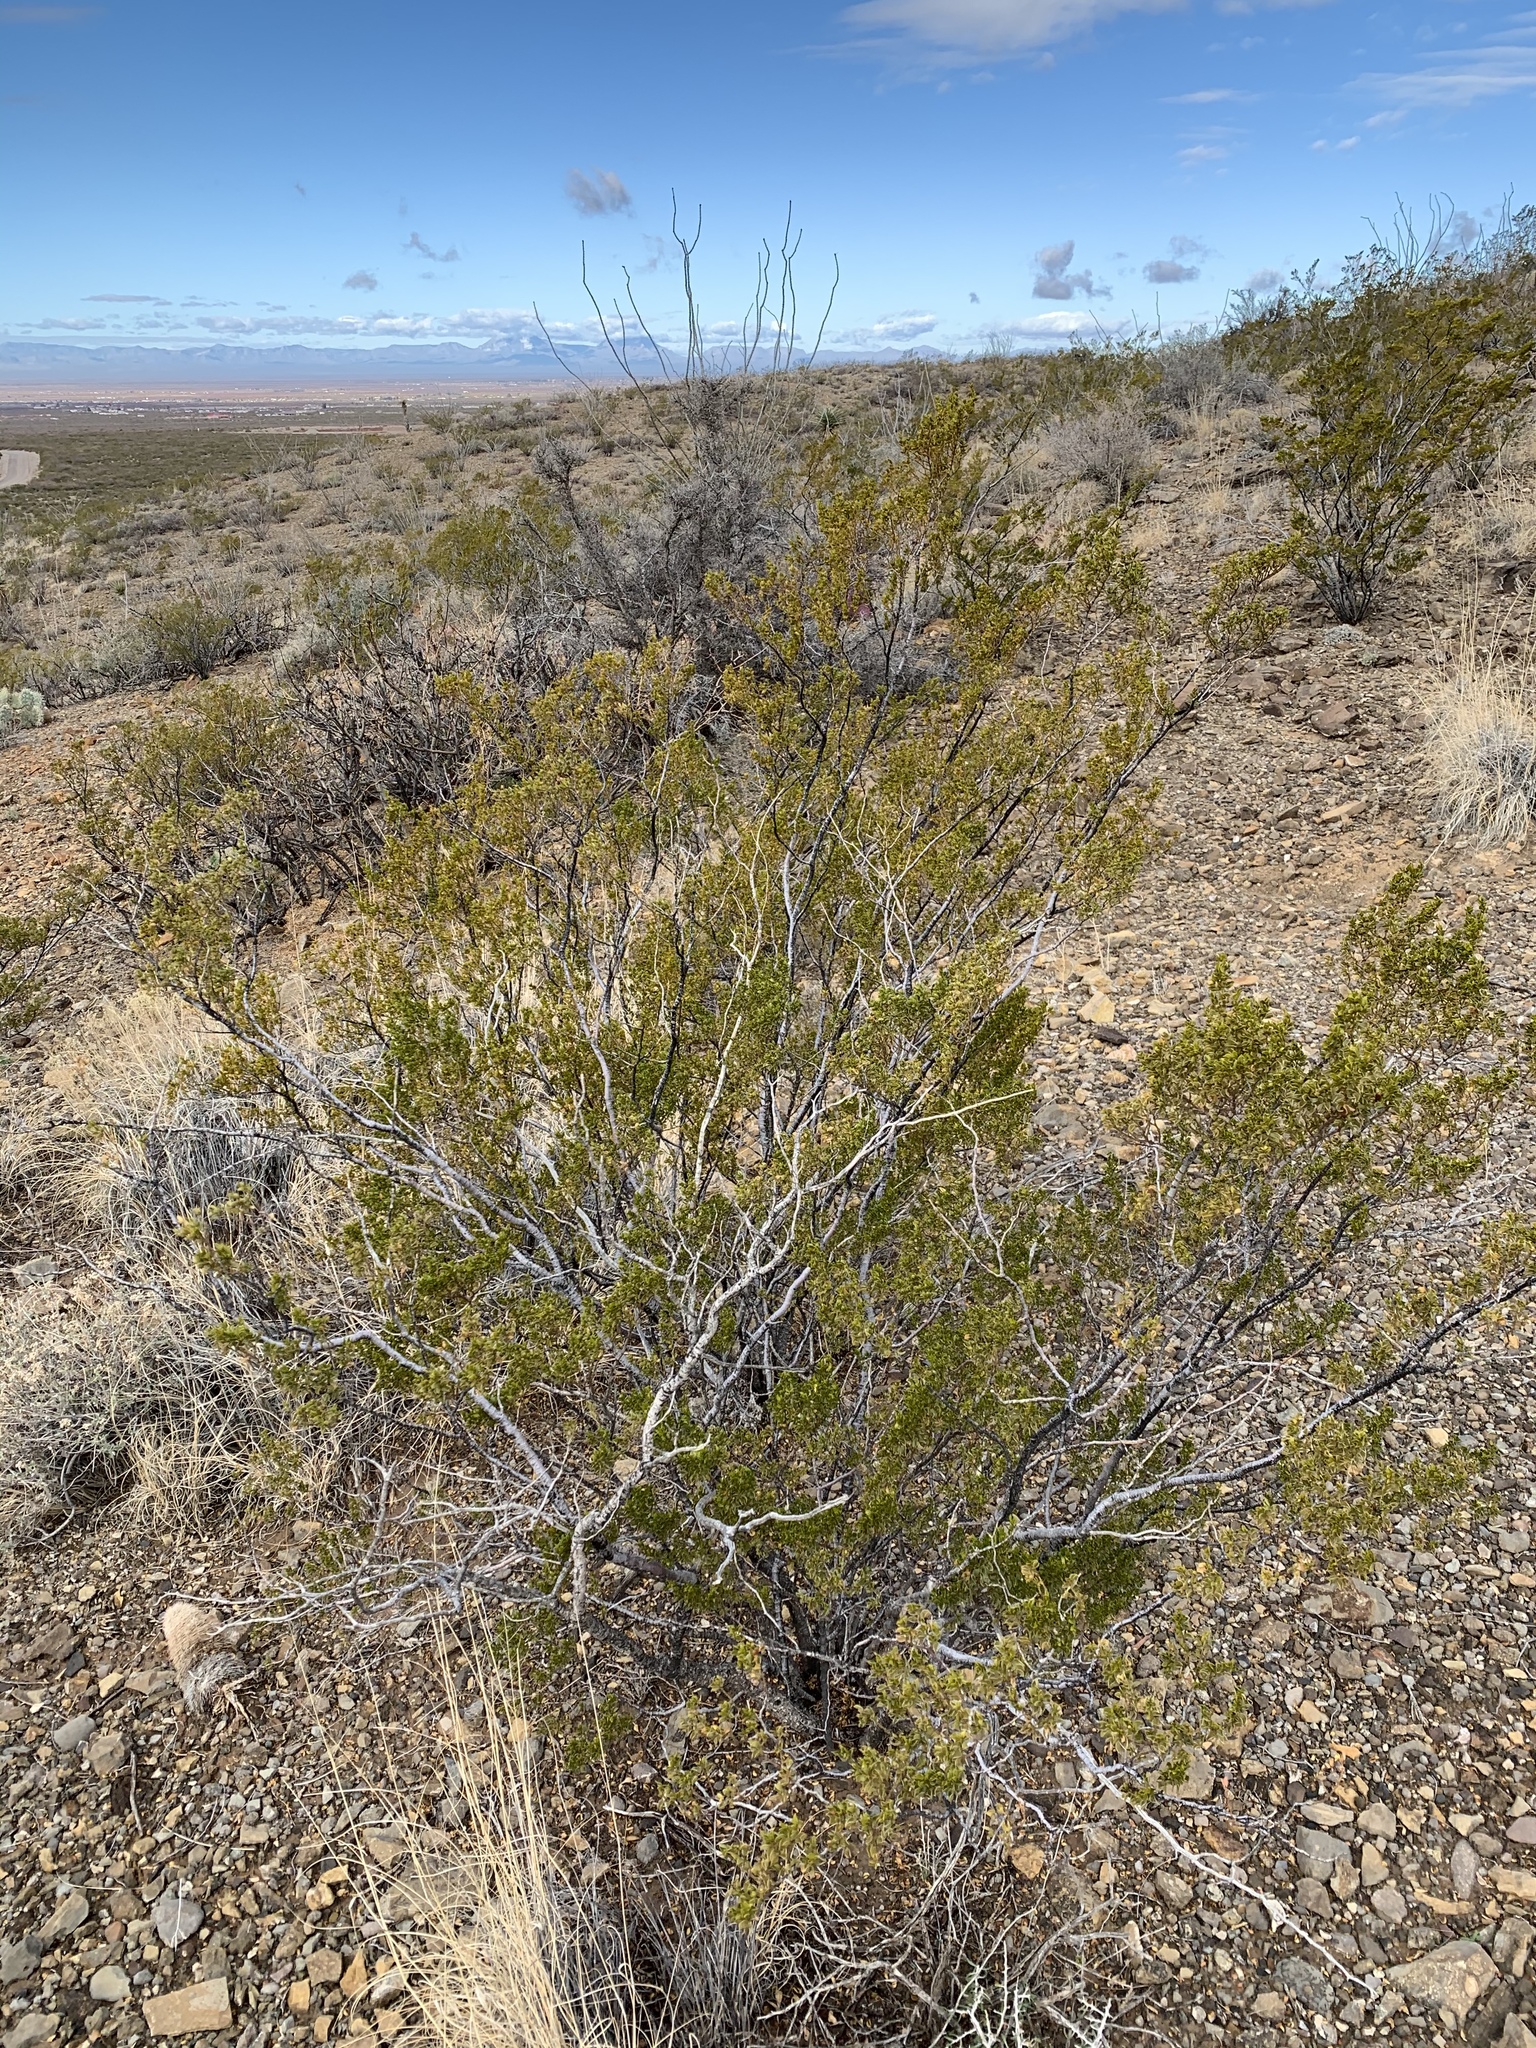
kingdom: Plantae
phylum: Tracheophyta
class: Magnoliopsida
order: Zygophyllales
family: Zygophyllaceae
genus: Larrea
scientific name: Larrea tridentata
